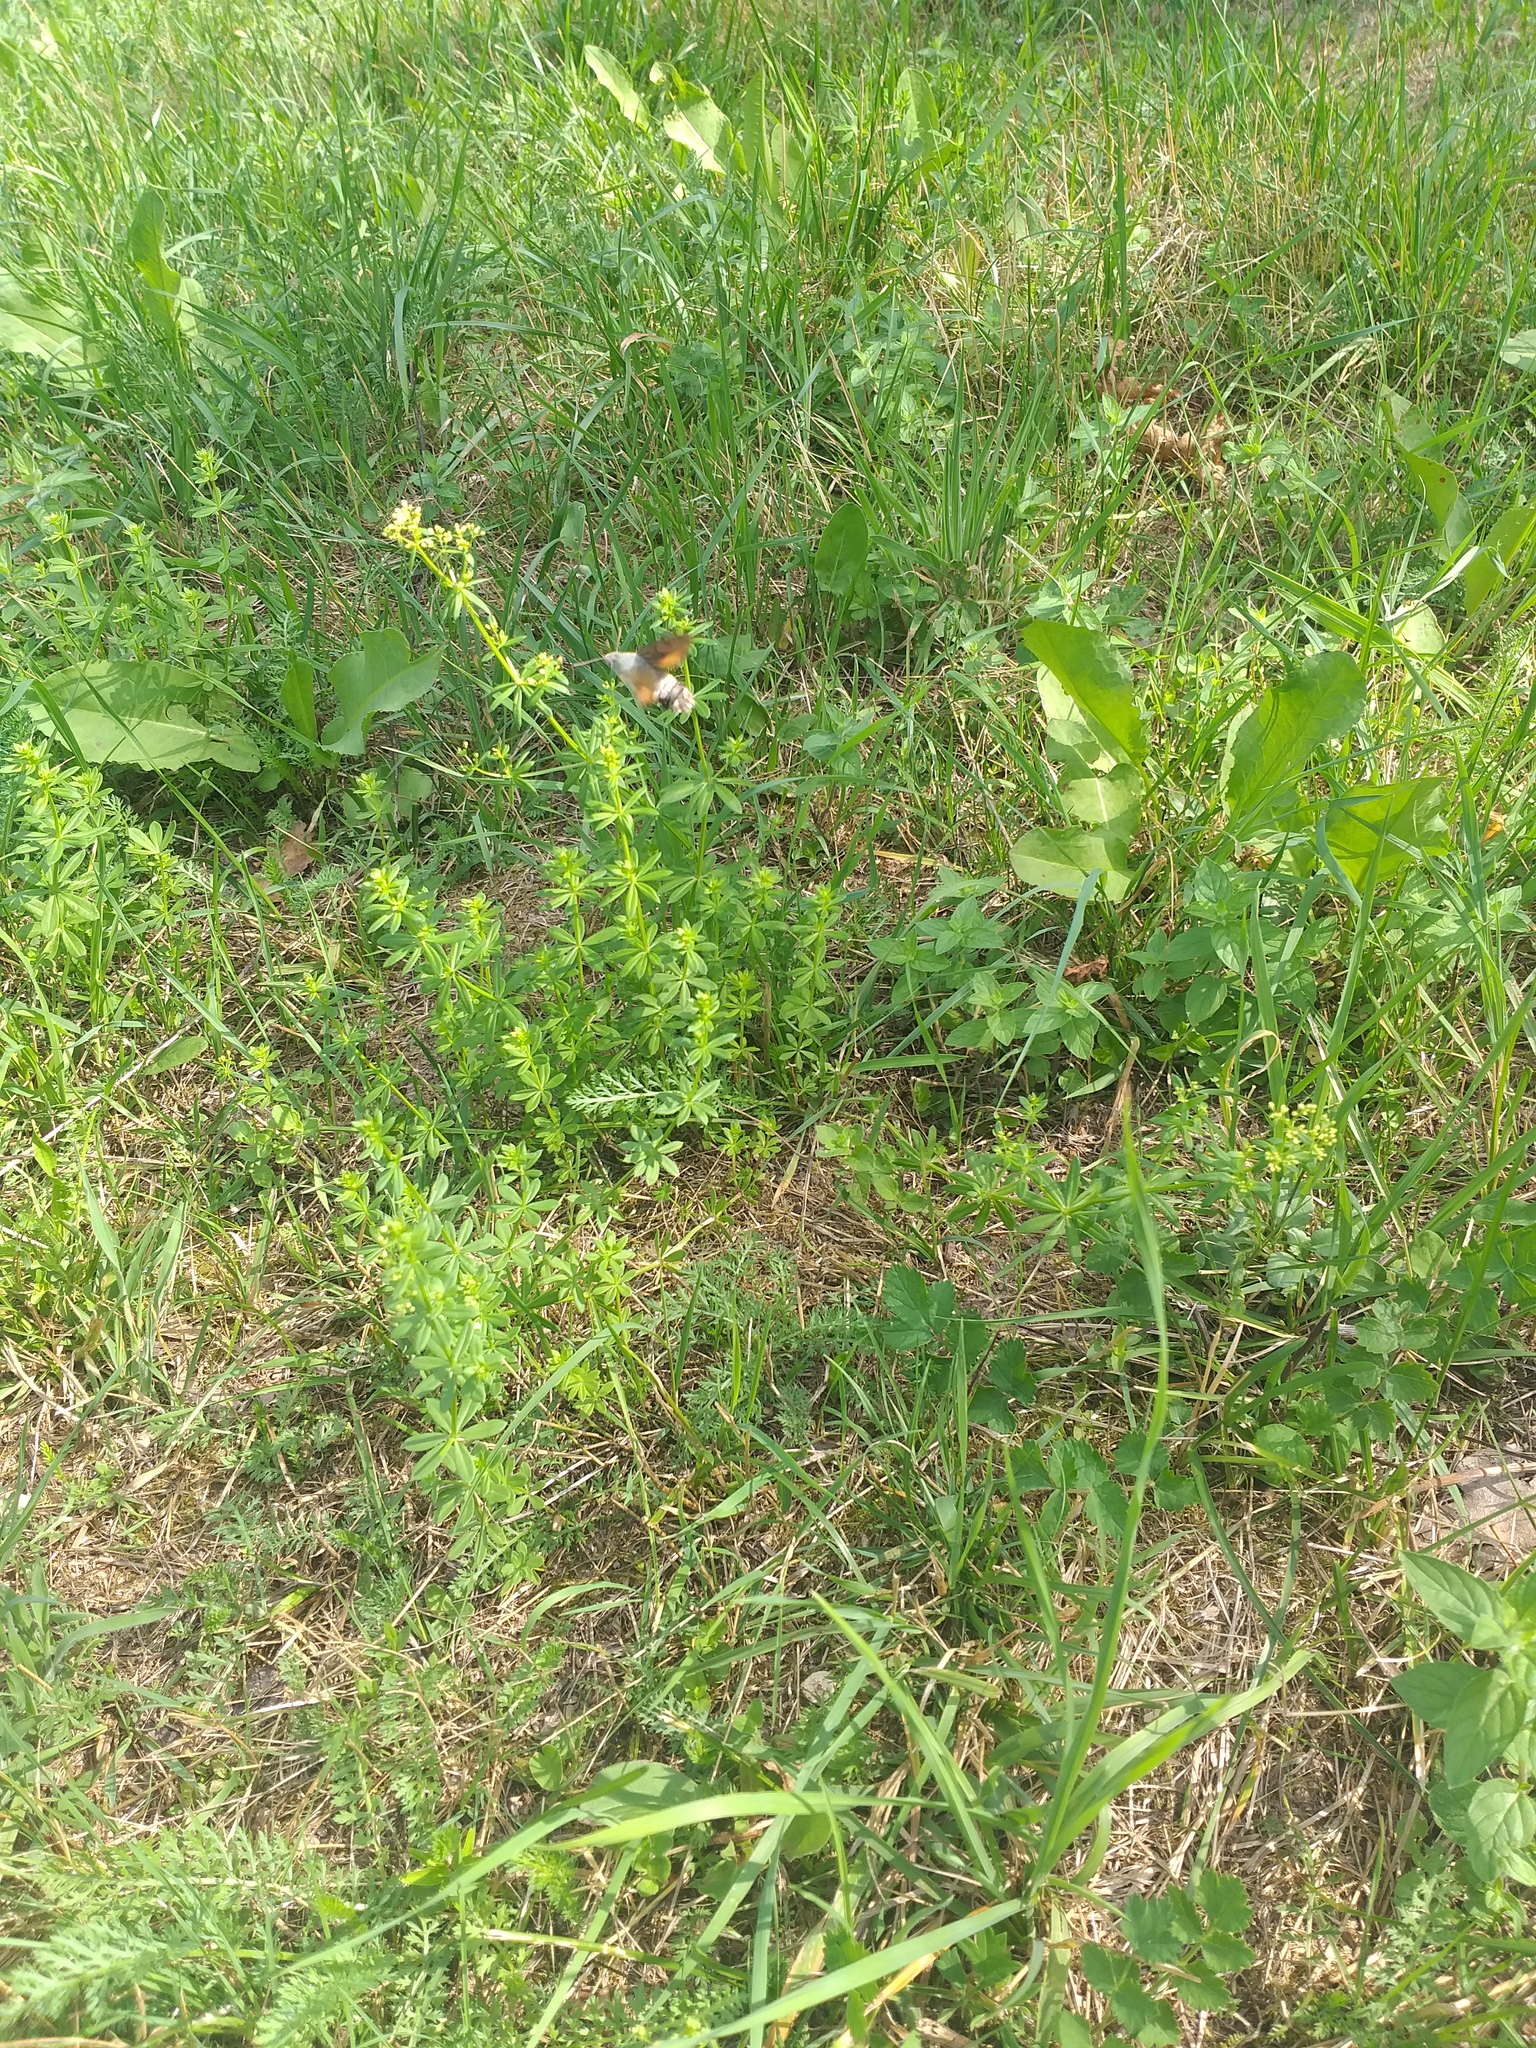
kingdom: Animalia
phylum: Arthropoda
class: Insecta
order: Lepidoptera
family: Sphingidae
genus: Macroglossum
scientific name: Macroglossum stellatarum
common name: Humming-bird hawk-moth
